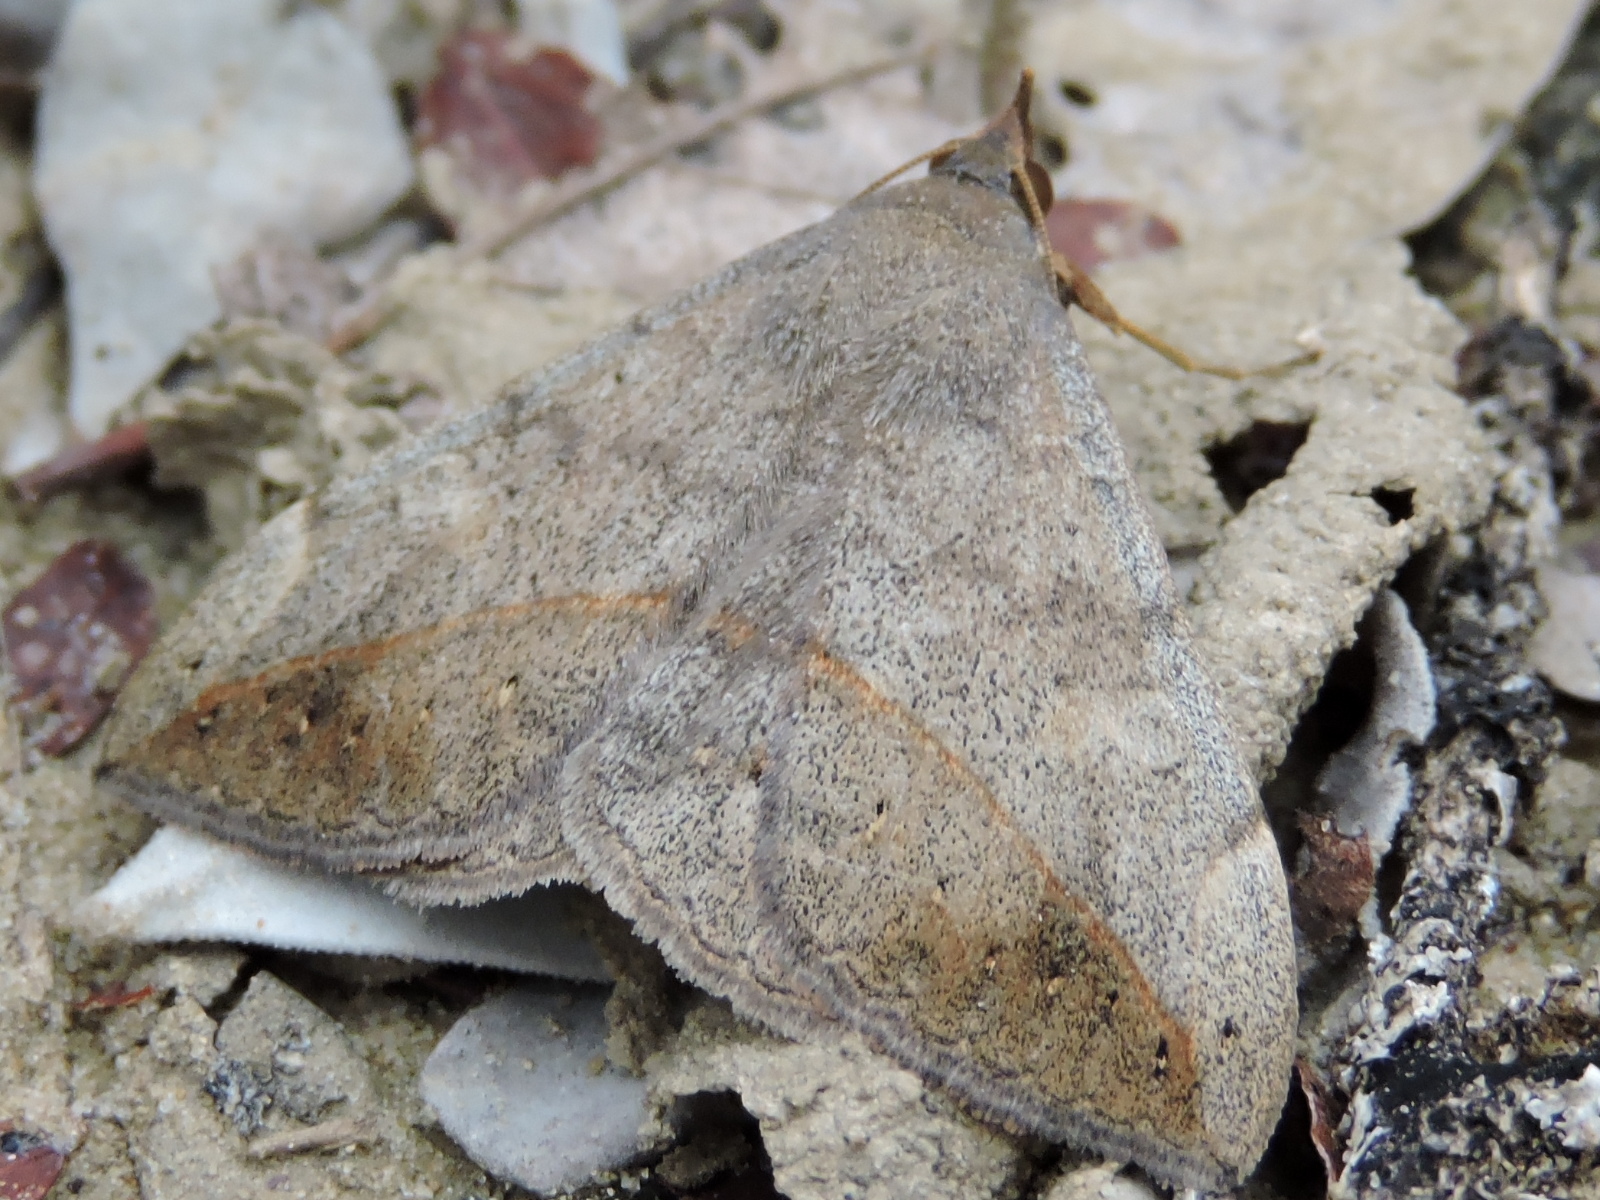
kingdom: Animalia
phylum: Arthropoda
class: Insecta
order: Lepidoptera
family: Erebidae
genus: Anticarsia
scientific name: Anticarsia gemmatalis
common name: Cutworm moth
